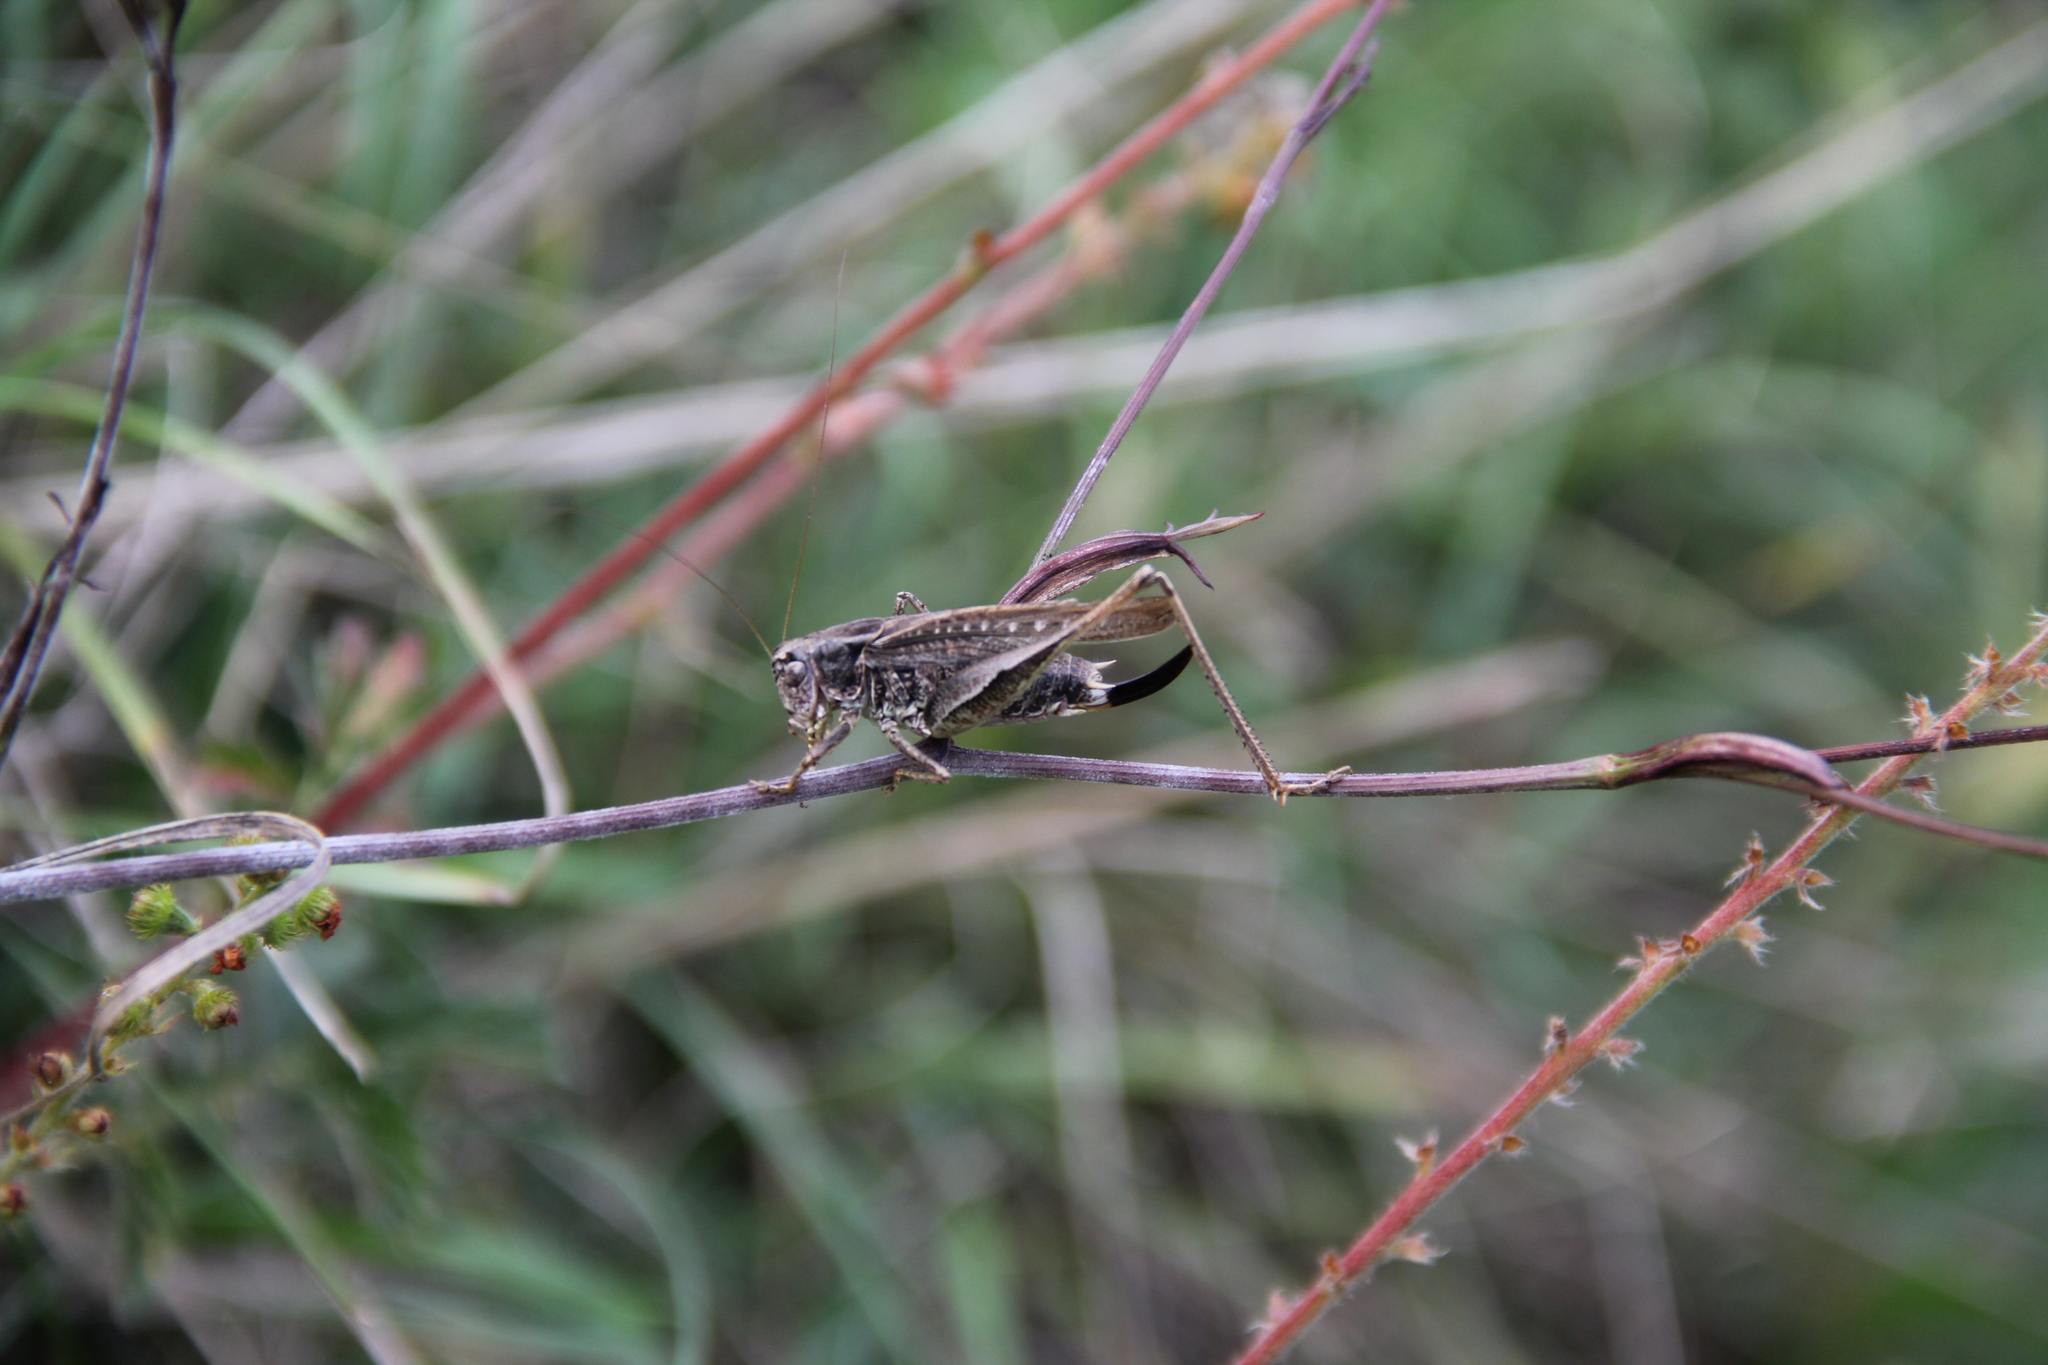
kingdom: Animalia
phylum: Arthropoda
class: Insecta
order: Orthoptera
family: Tettigoniidae
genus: Platycleis
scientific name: Platycleis albopunctata
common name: Grey bush-cricket
